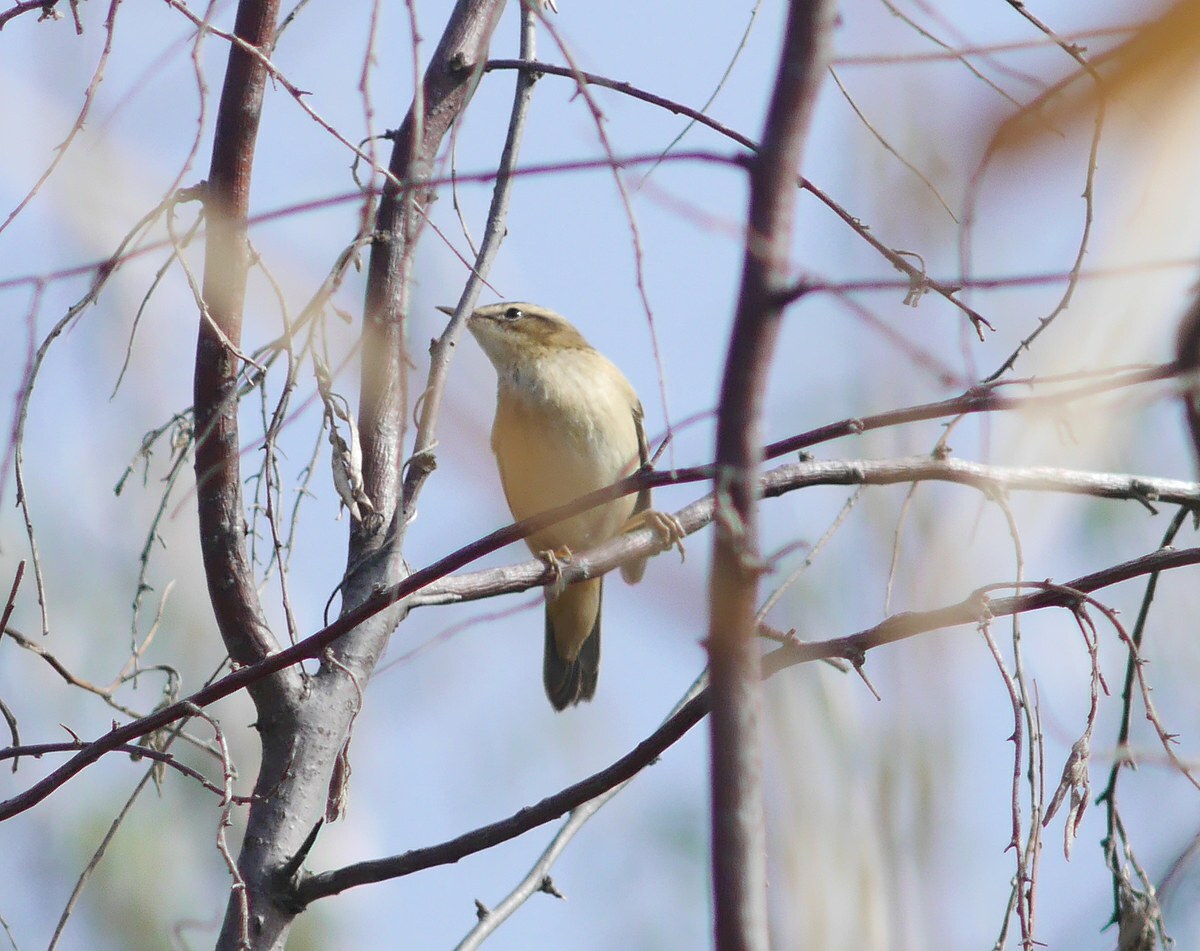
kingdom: Animalia
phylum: Chordata
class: Aves
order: Passeriformes
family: Acrocephalidae
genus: Acrocephalus
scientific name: Acrocephalus schoenobaenus
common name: Sedge warbler
